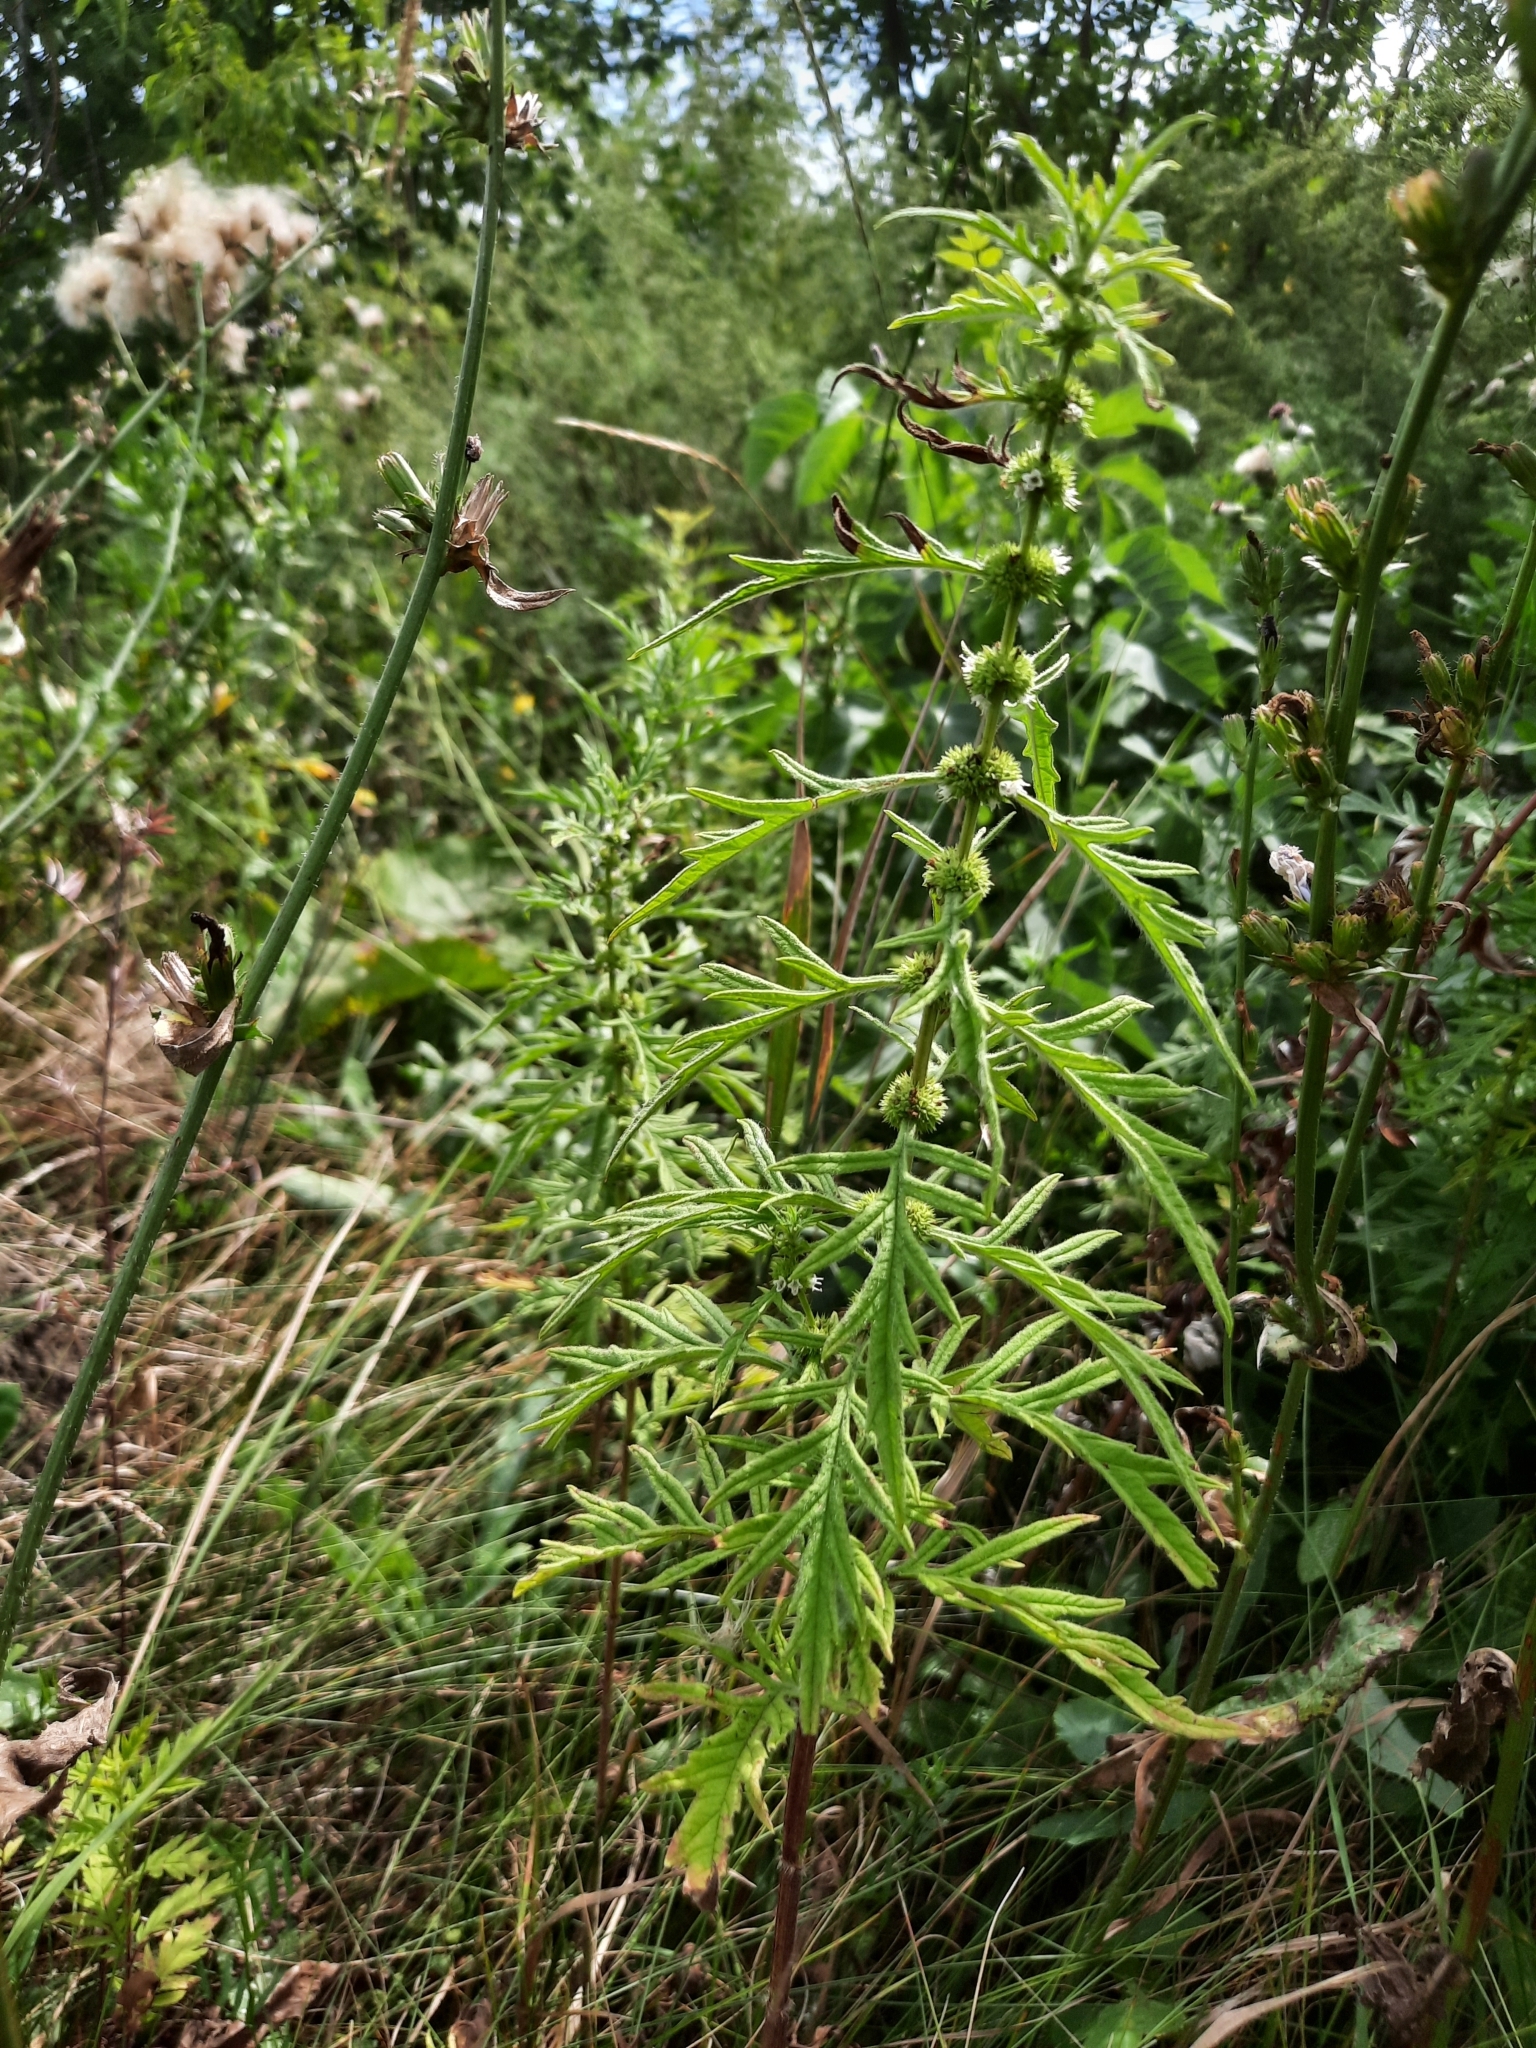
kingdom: Plantae
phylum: Tracheophyta
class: Magnoliopsida
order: Lamiales
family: Lamiaceae
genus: Lycopus
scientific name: Lycopus exaltatus
